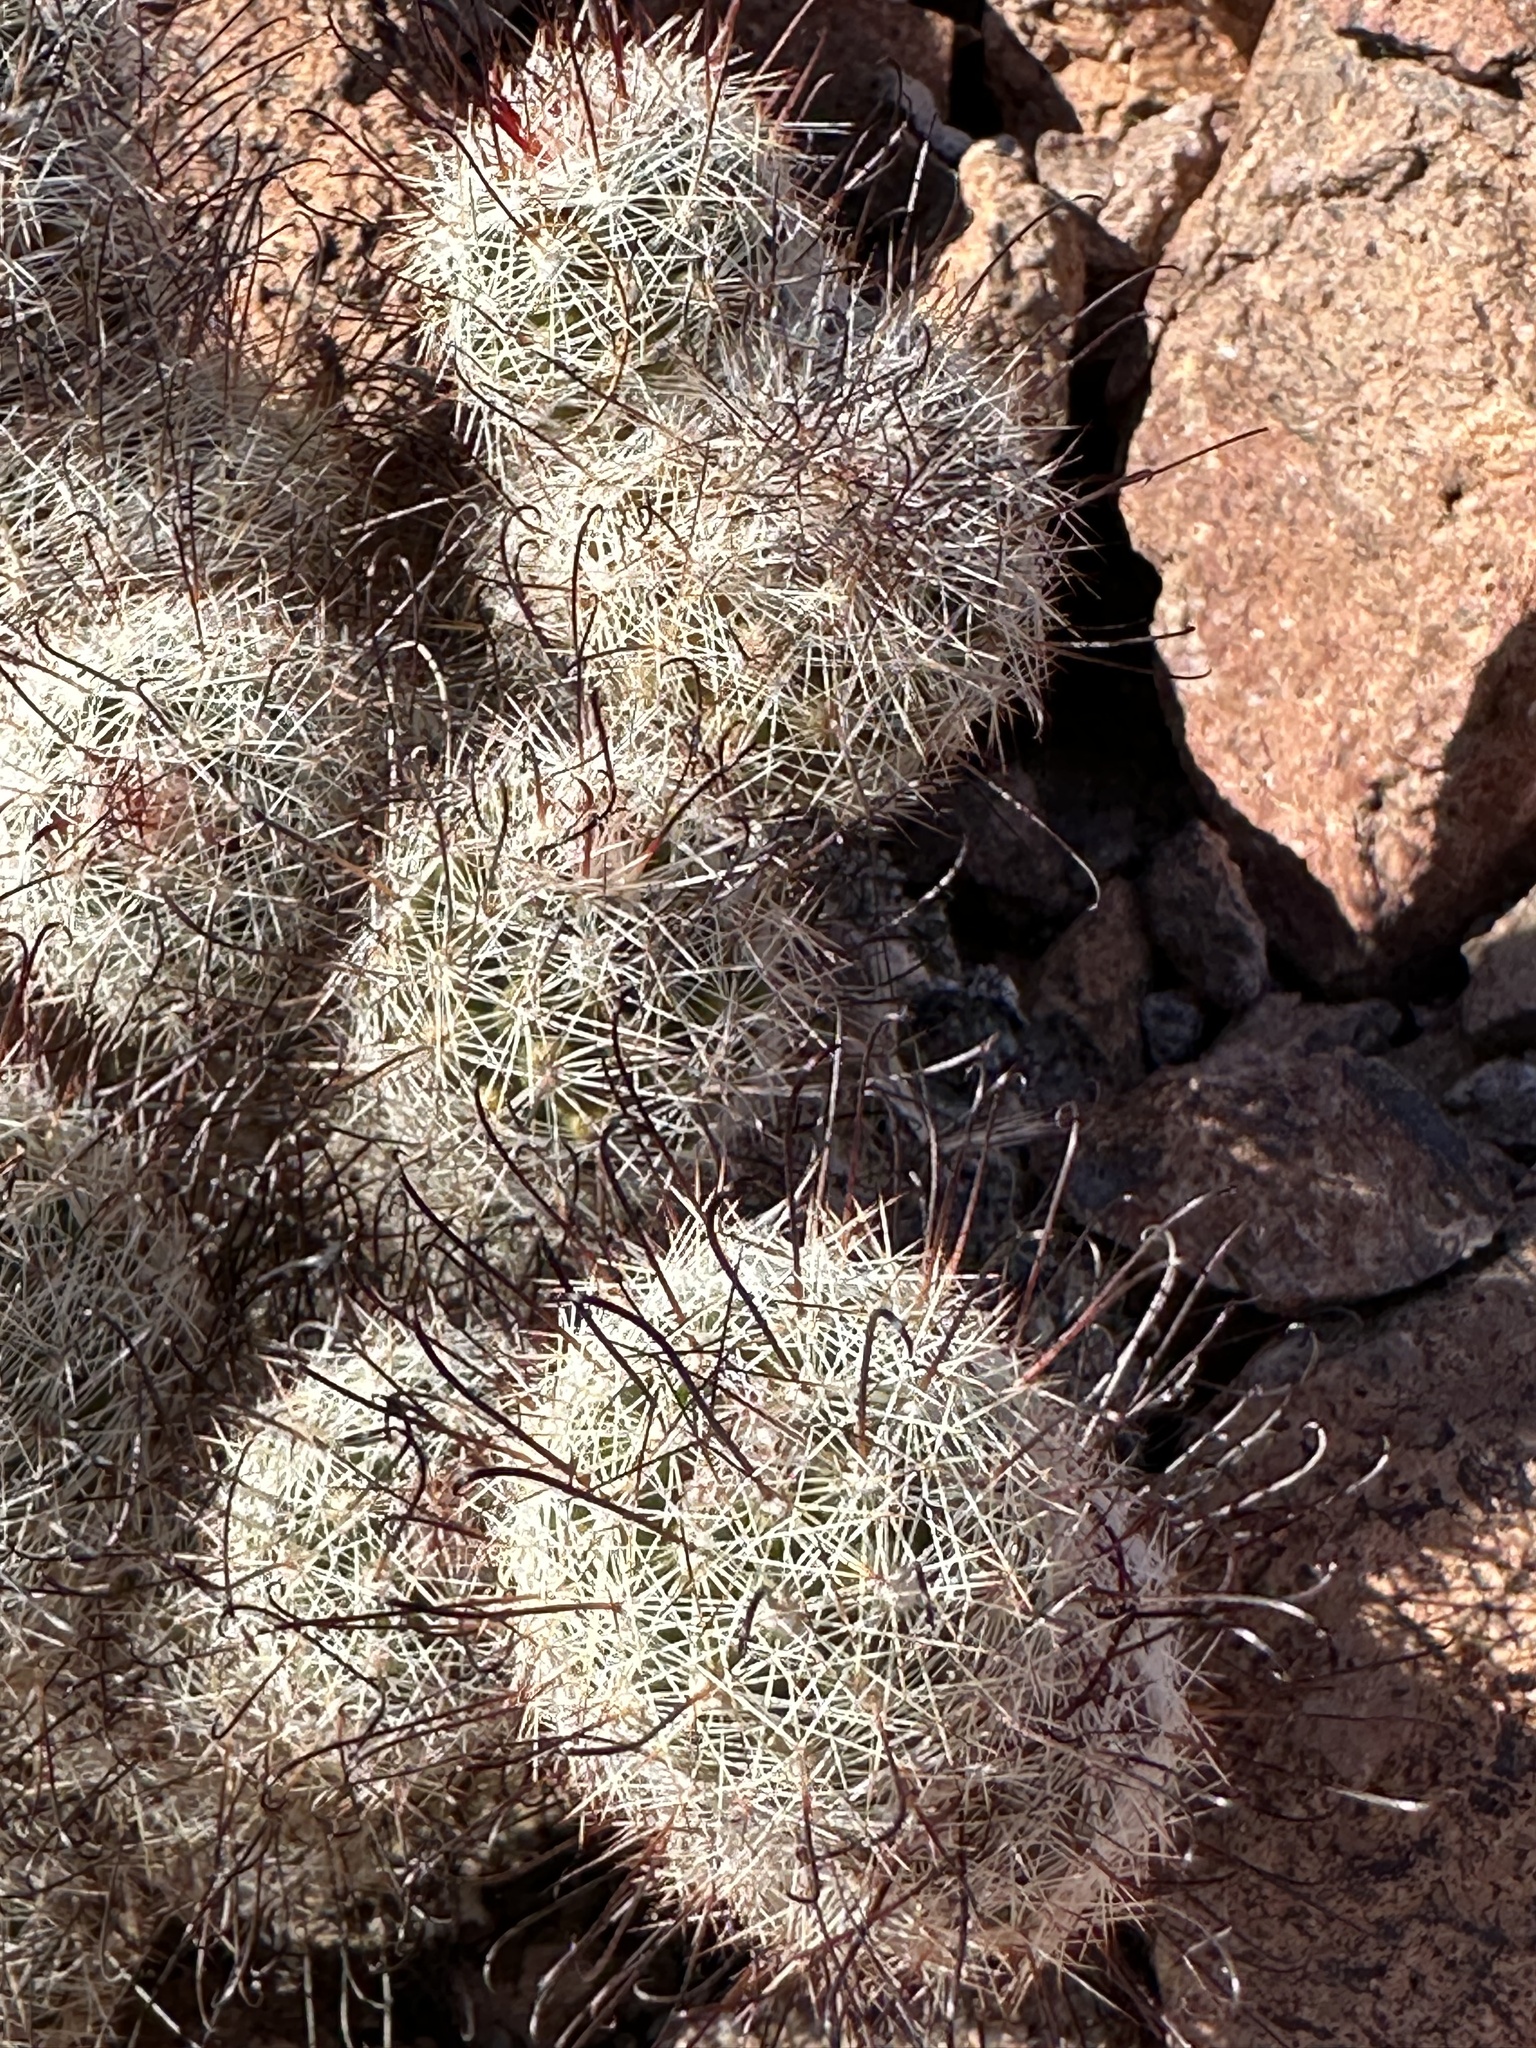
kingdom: Plantae
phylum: Tracheophyta
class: Magnoliopsida
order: Caryophyllales
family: Cactaceae
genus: Cochemiea
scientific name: Cochemiea grahamii
